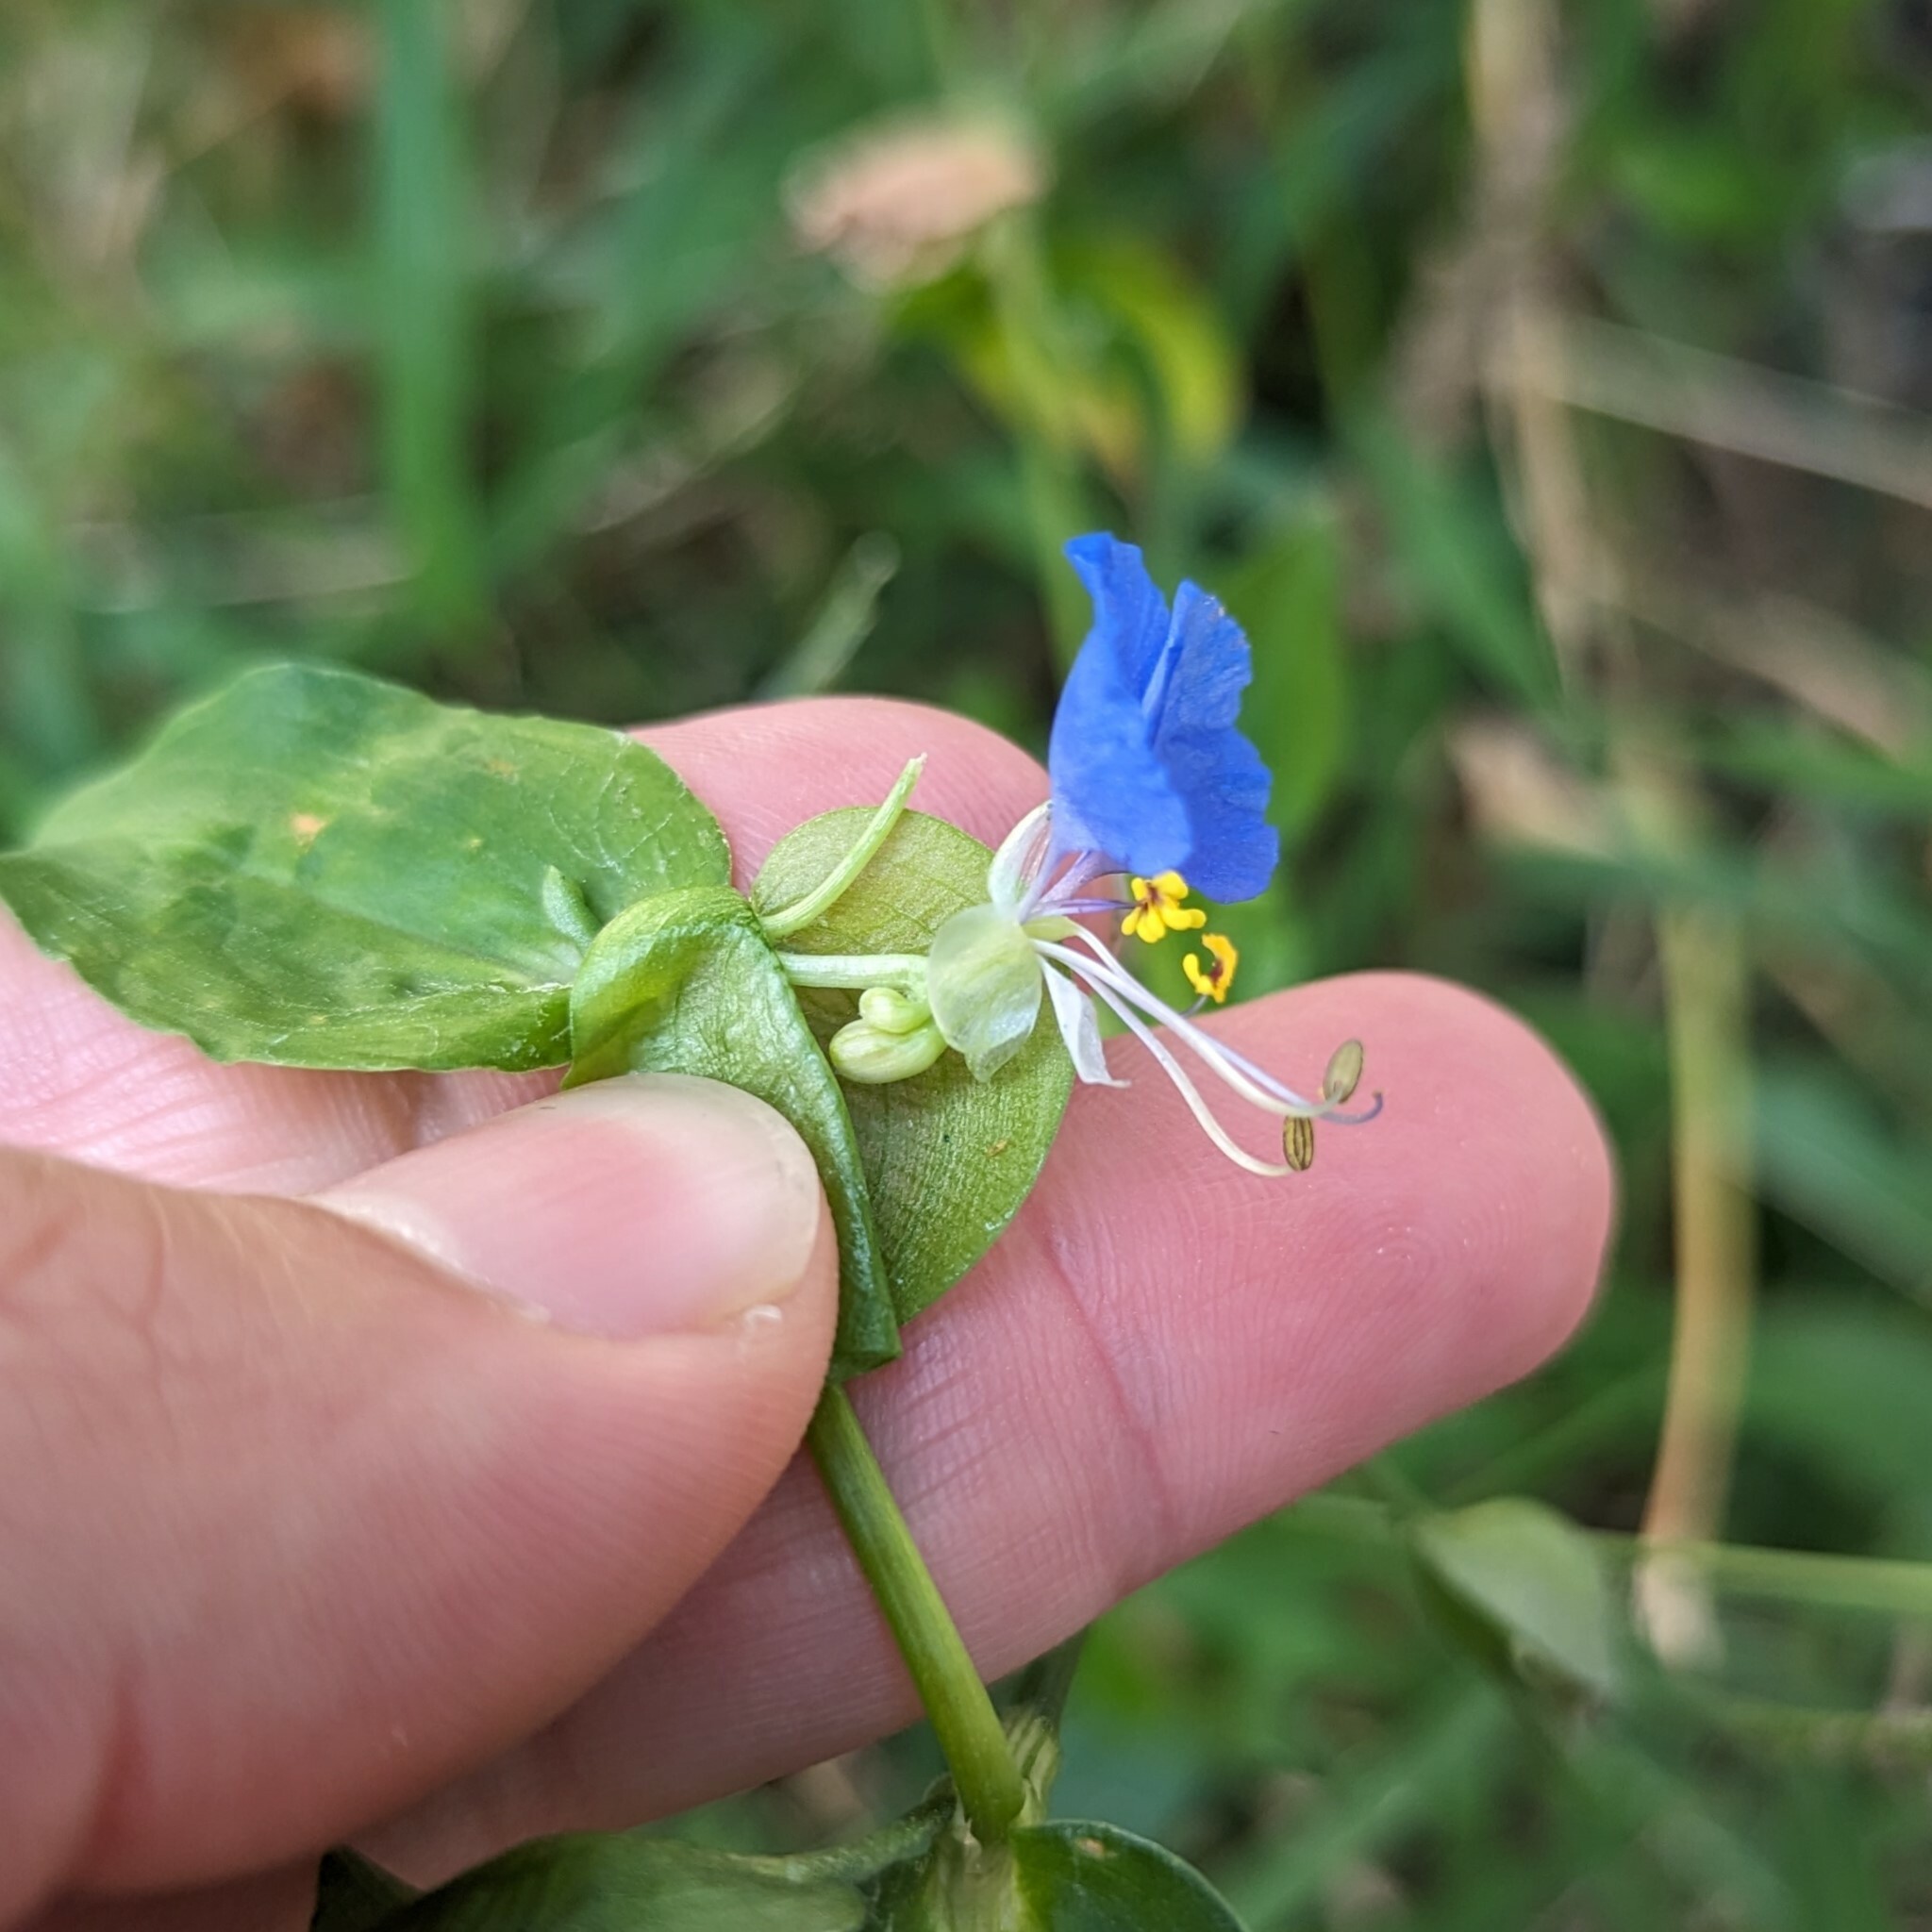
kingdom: Plantae
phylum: Tracheophyta
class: Liliopsida
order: Commelinales
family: Commelinaceae
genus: Commelina
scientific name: Commelina communis
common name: Asiatic dayflower
